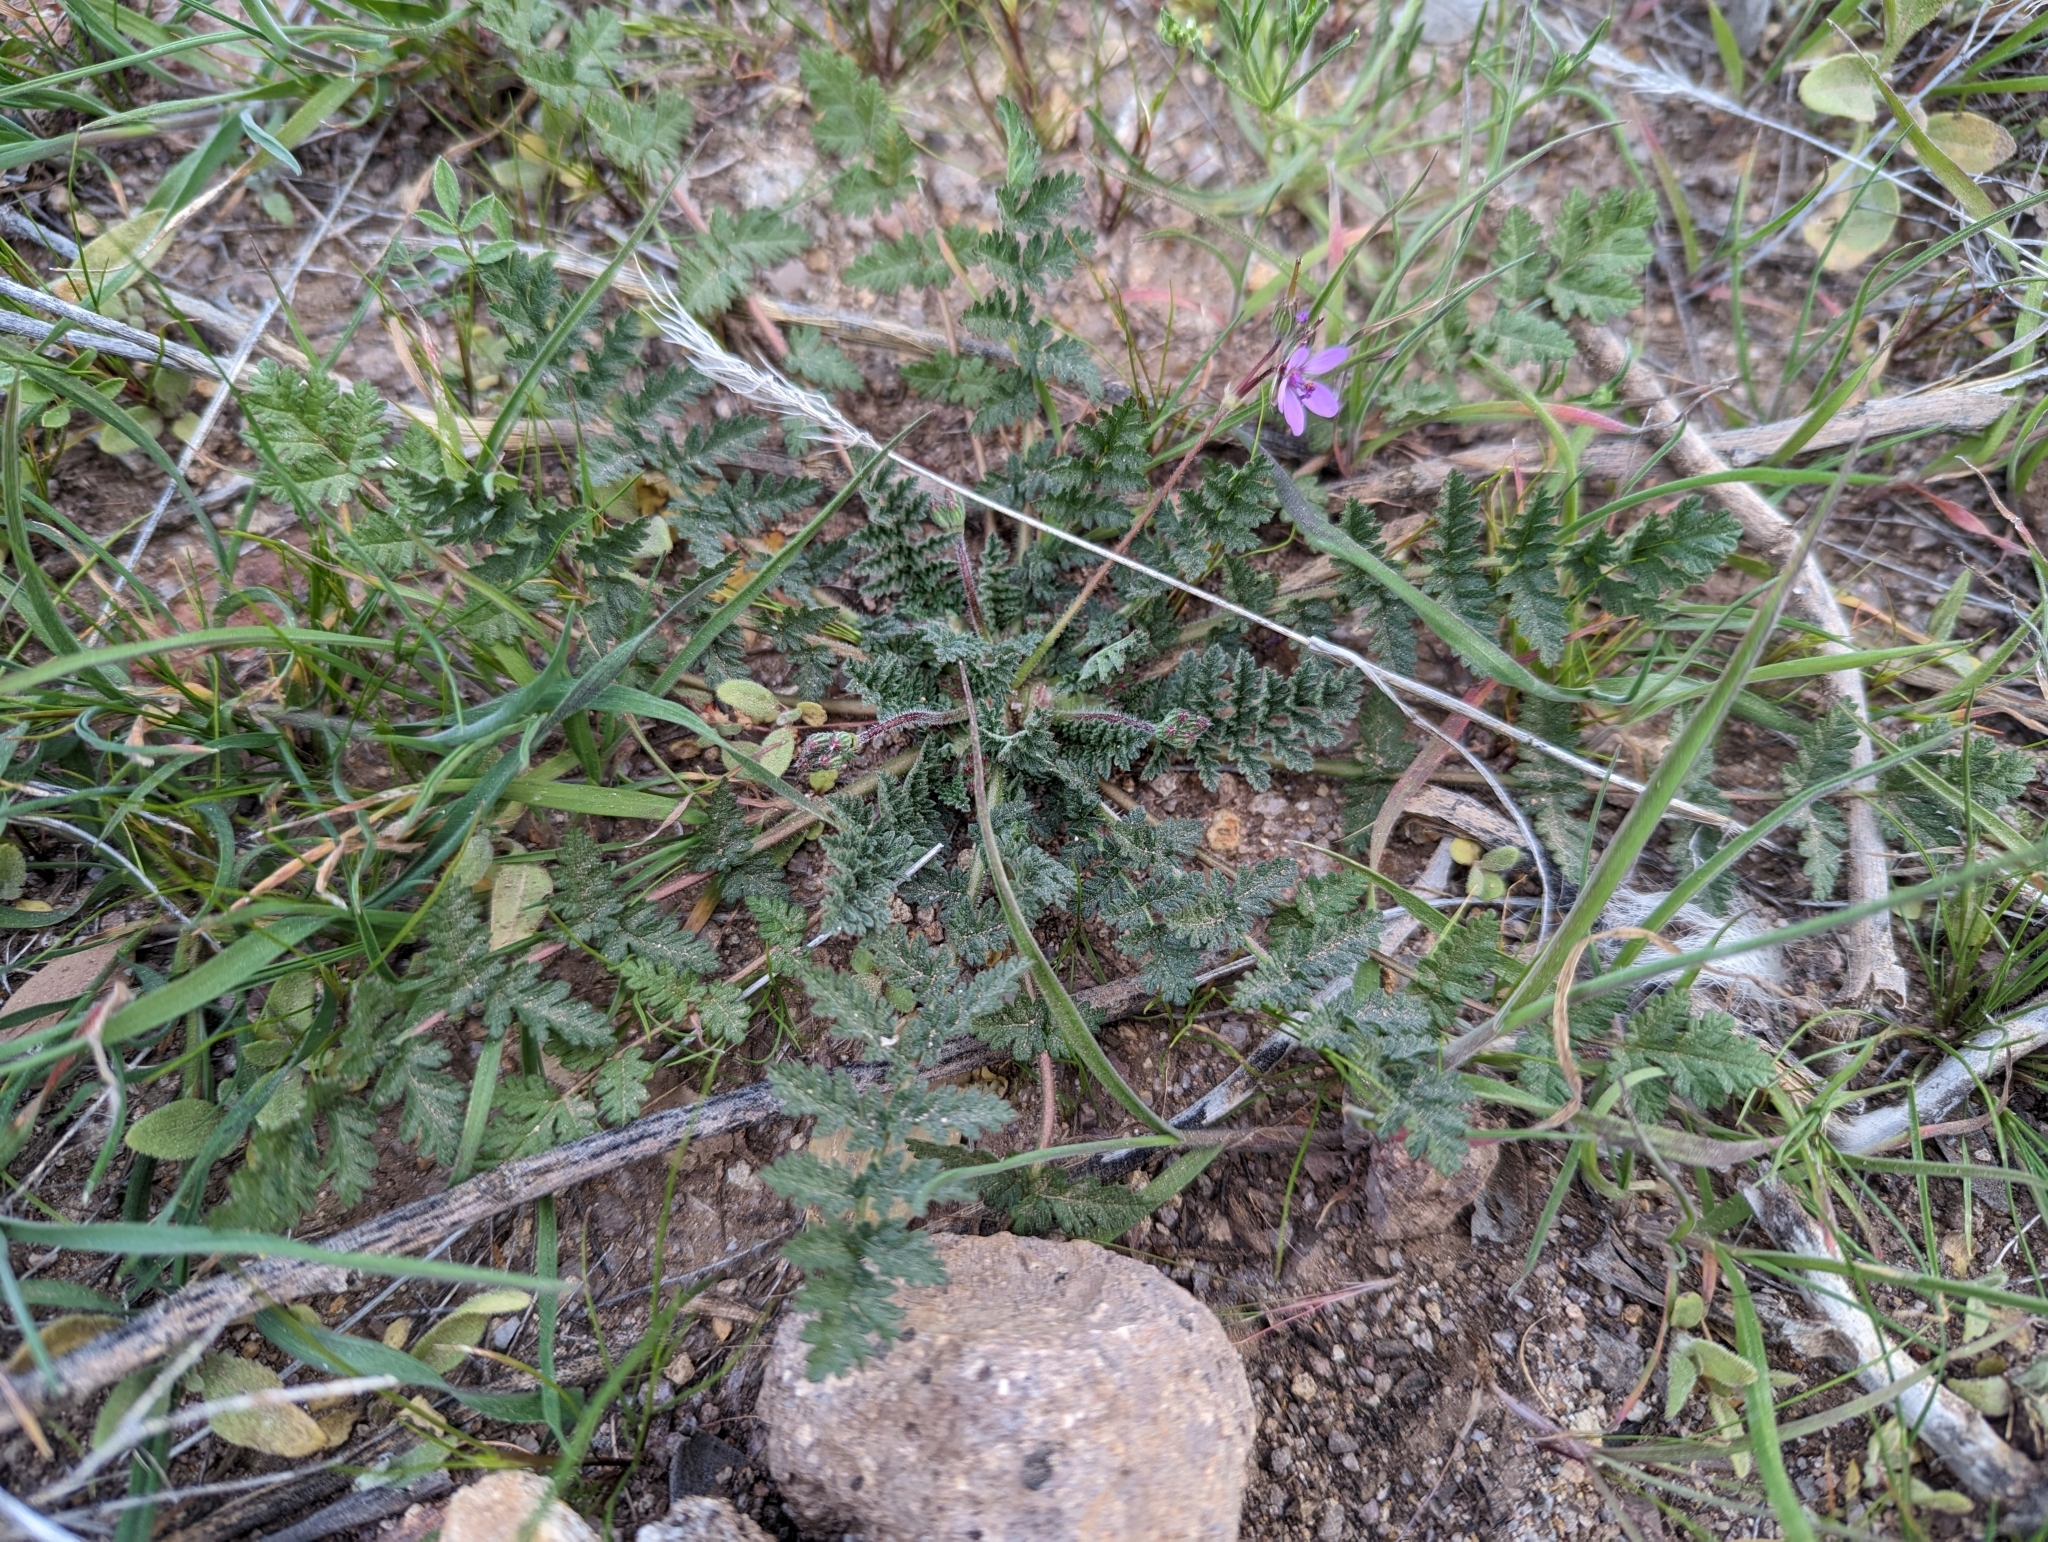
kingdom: Plantae
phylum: Tracheophyta
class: Magnoliopsida
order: Geraniales
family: Geraniaceae
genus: Erodium
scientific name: Erodium cicutarium
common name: Common stork's-bill
